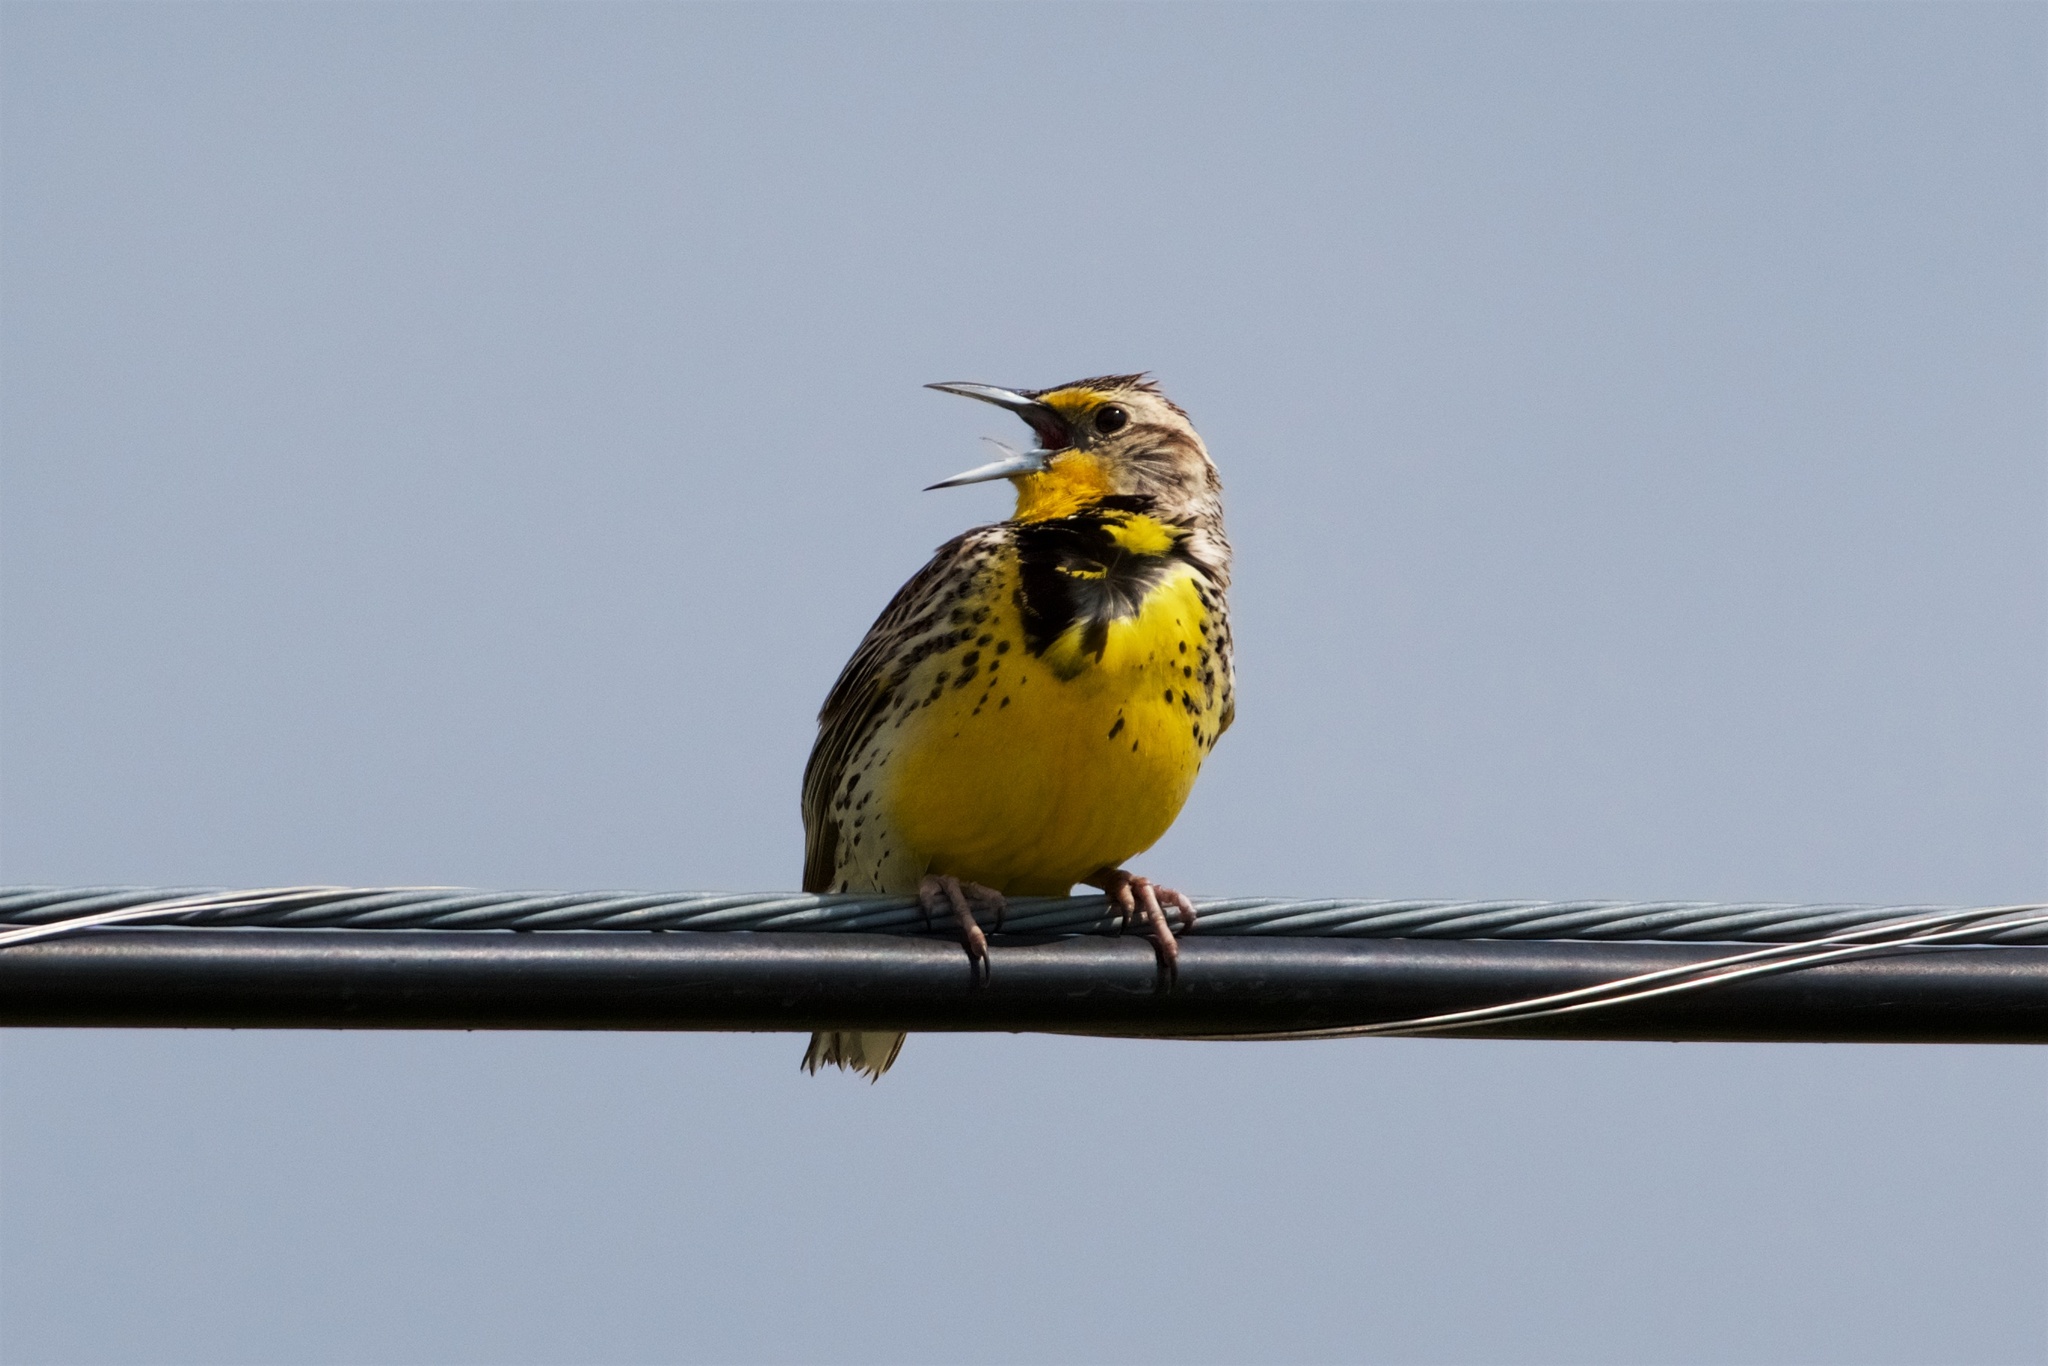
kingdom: Animalia
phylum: Chordata
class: Aves
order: Passeriformes
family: Icteridae
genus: Sturnella
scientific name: Sturnella neglecta
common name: Western meadowlark
